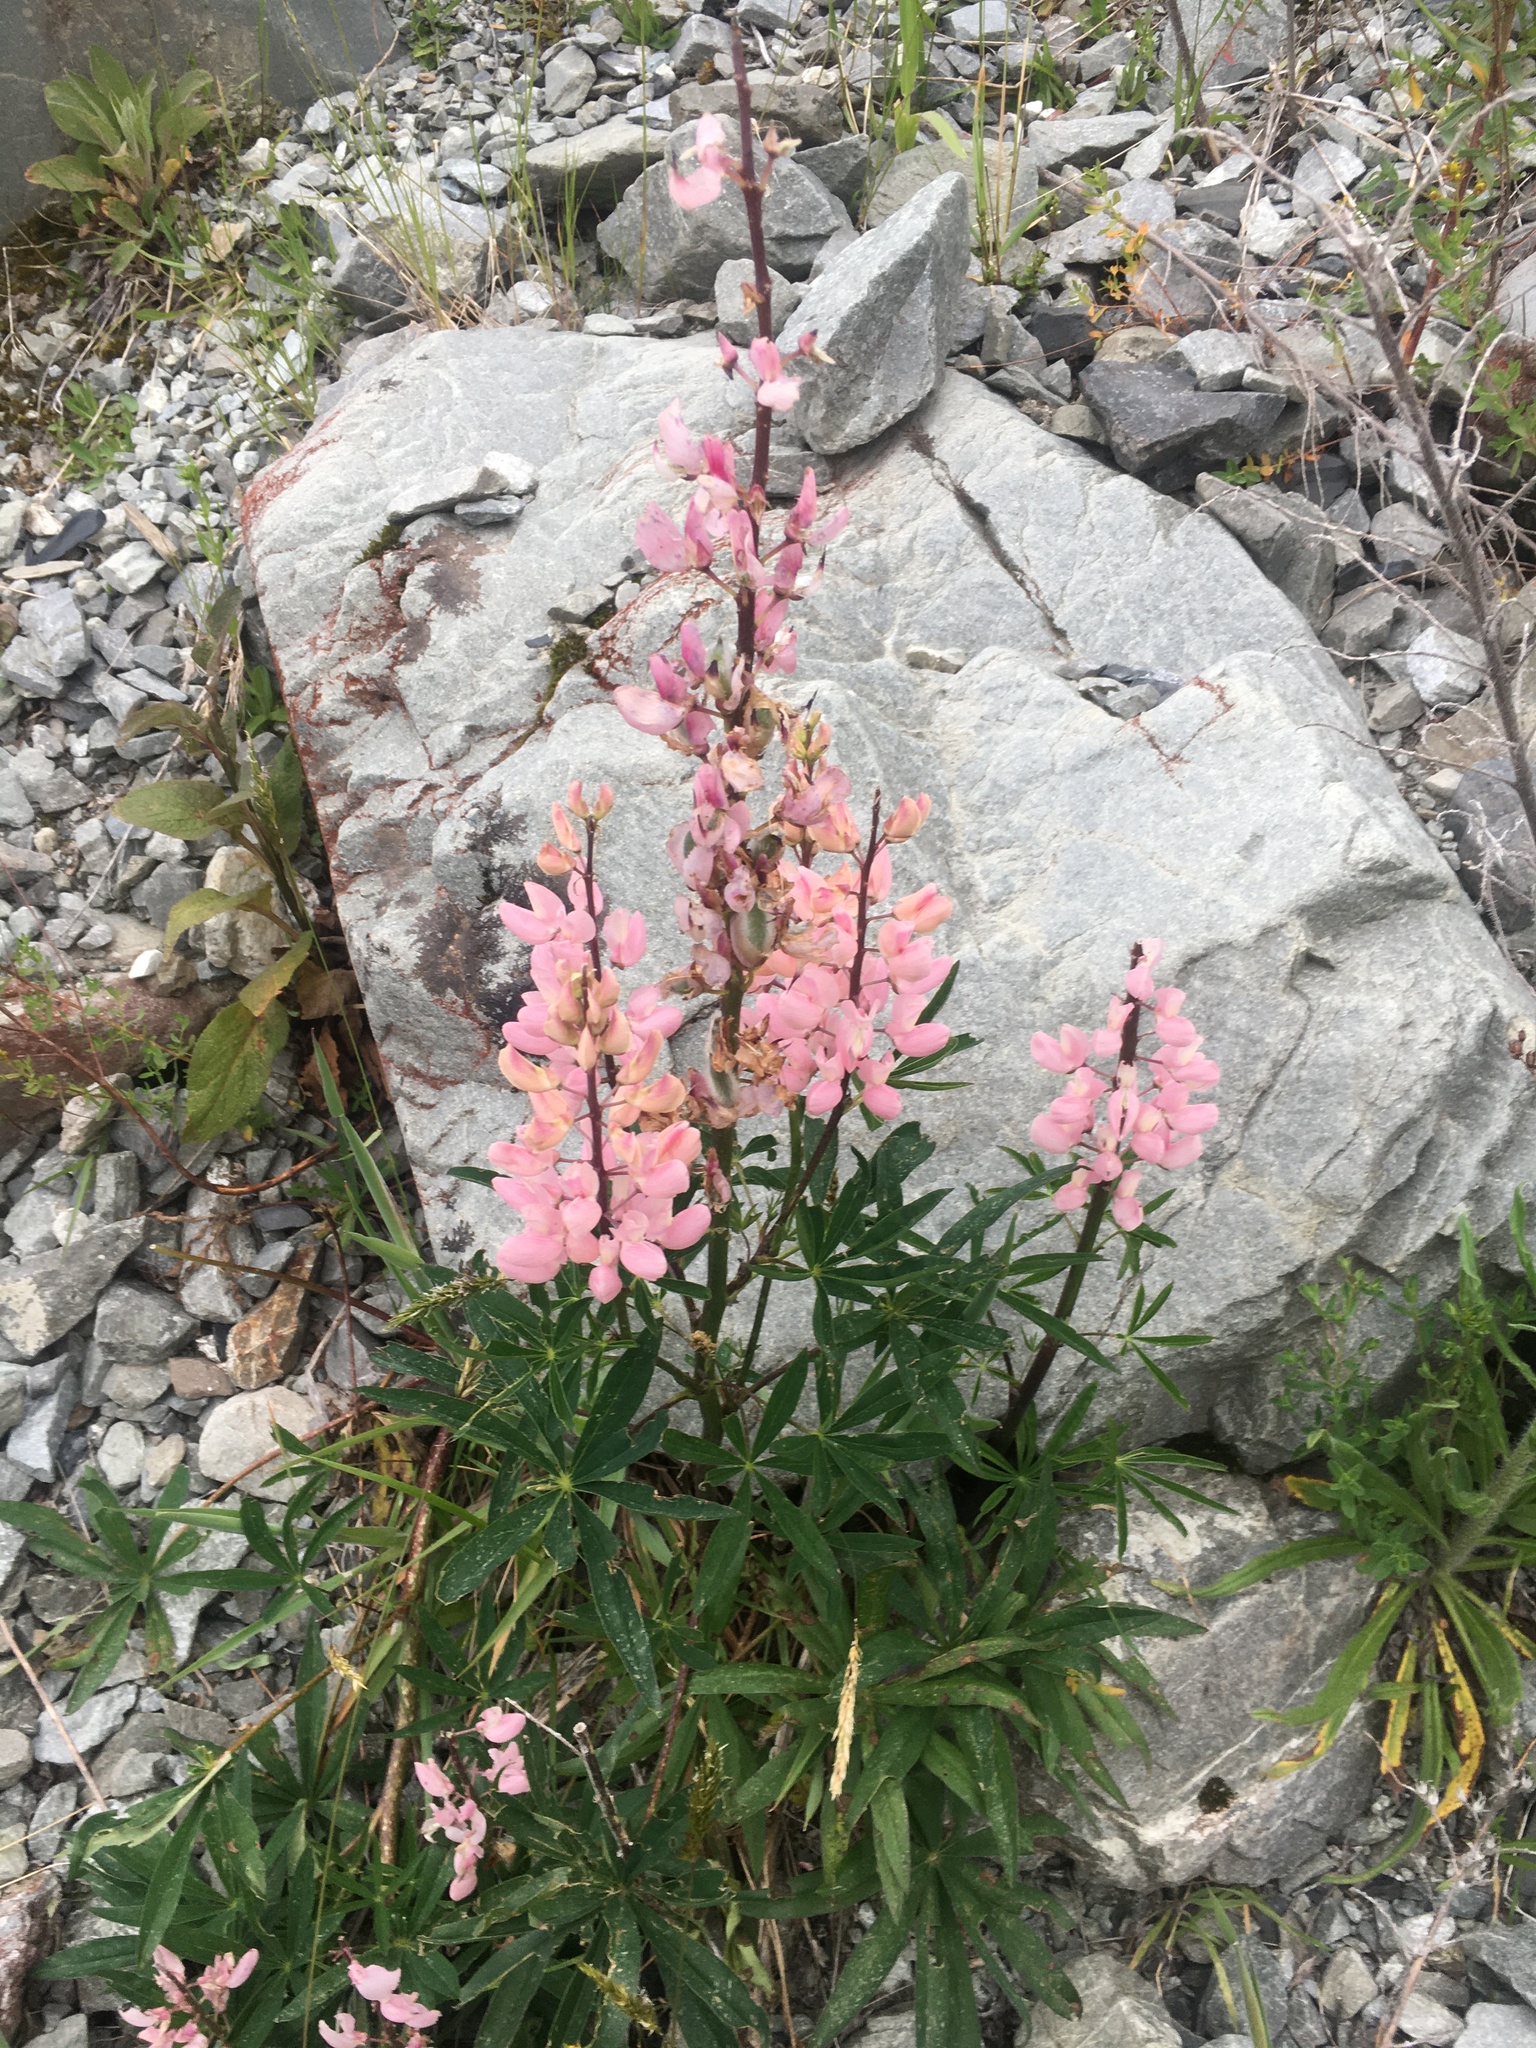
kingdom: Plantae
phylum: Tracheophyta
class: Magnoliopsida
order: Fabales
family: Fabaceae
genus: Lupinus
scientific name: Lupinus polyphyllus
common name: Garden lupin
